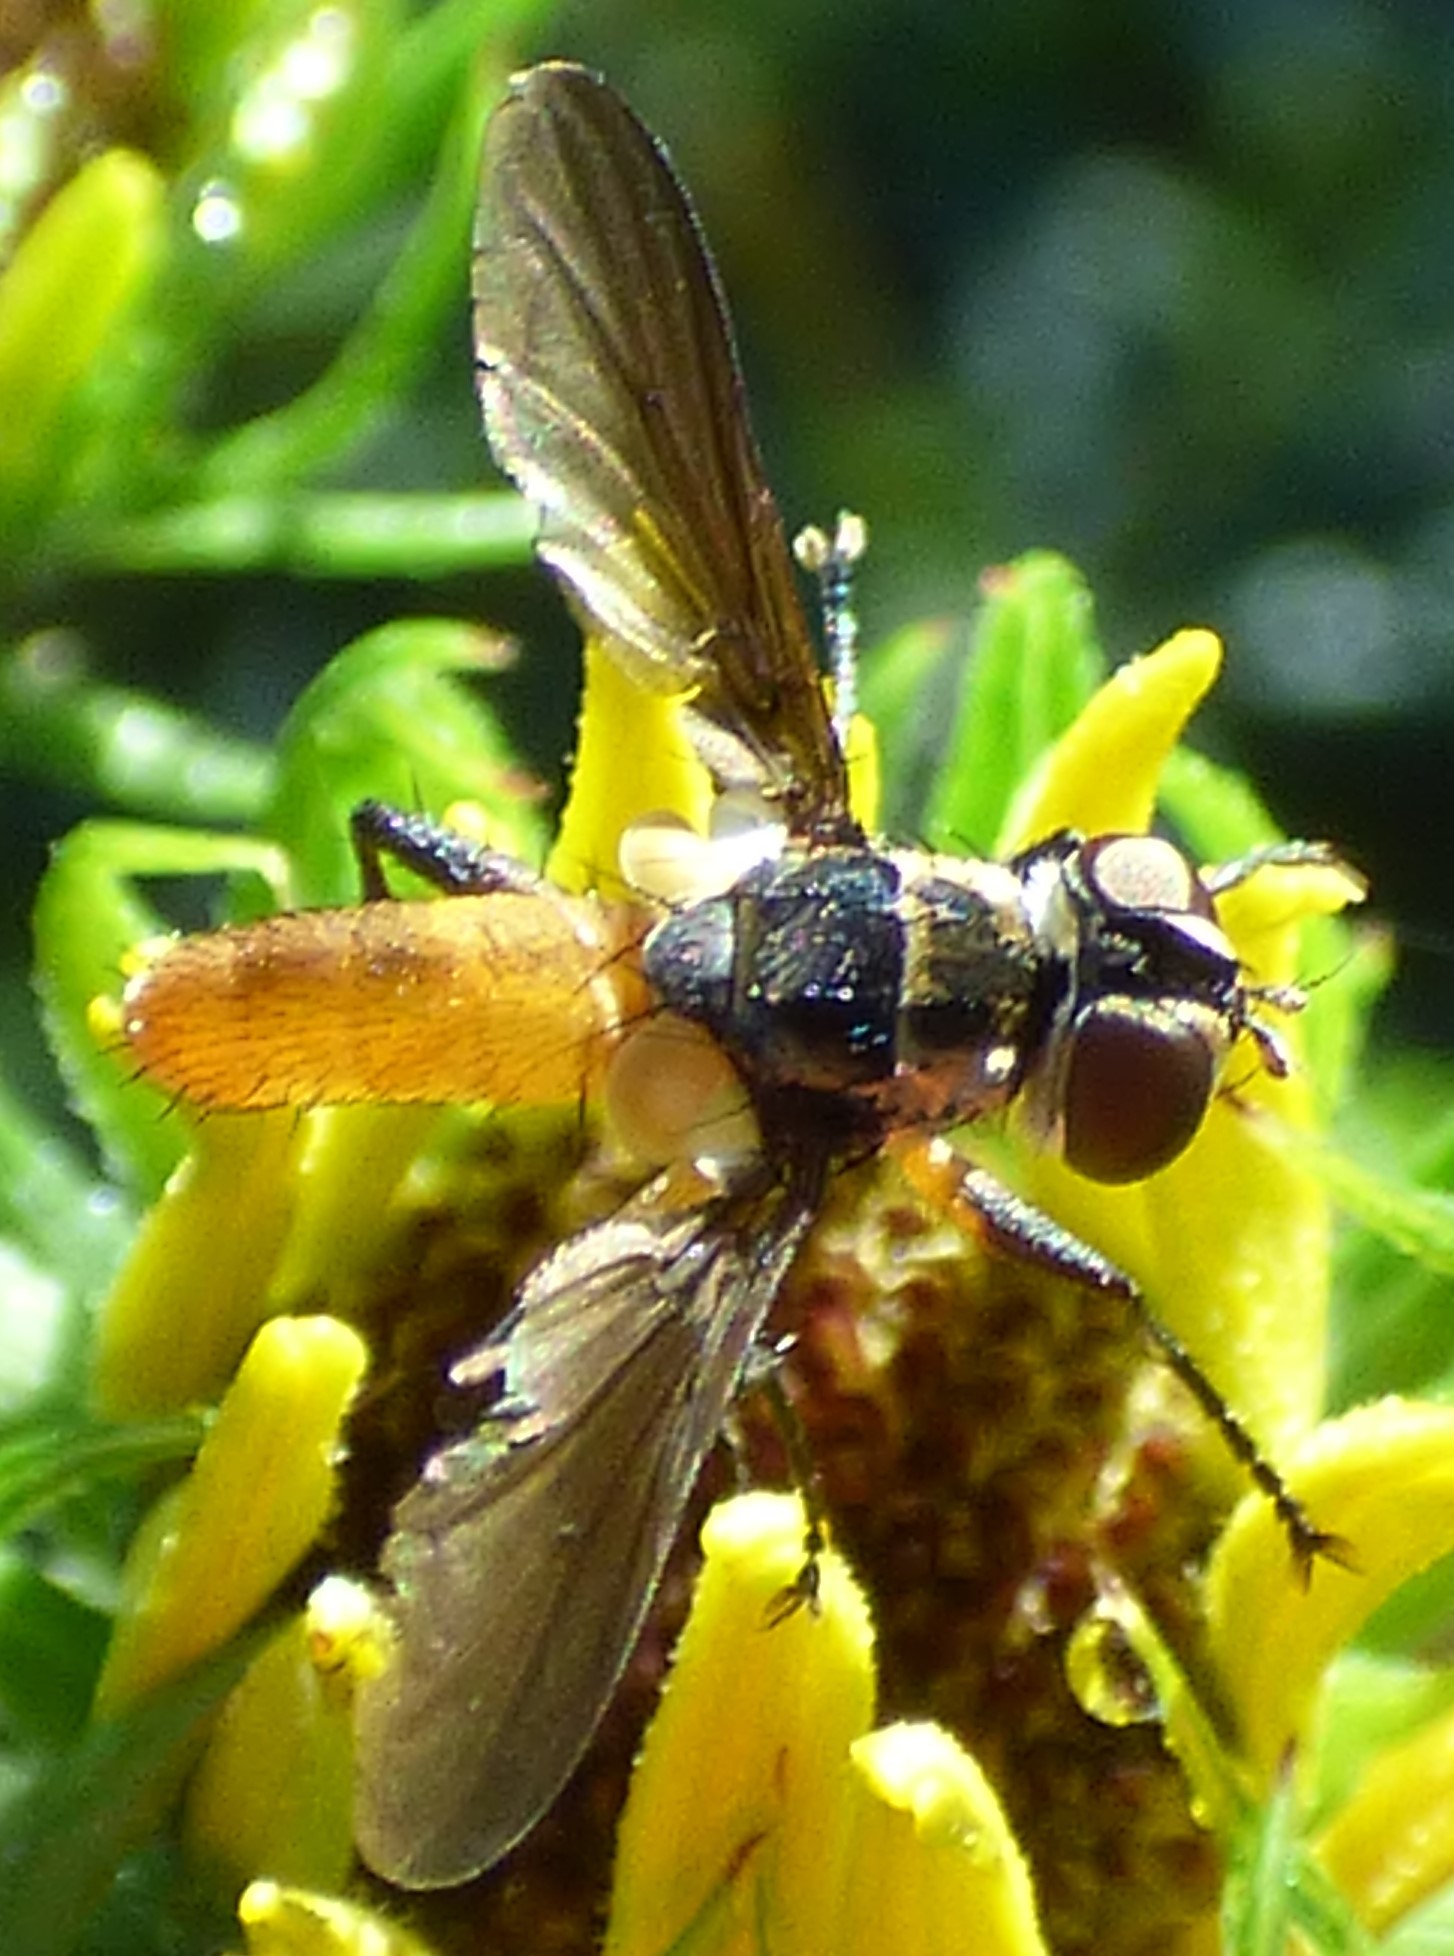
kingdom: Animalia
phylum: Arthropoda
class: Insecta
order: Diptera
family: Tachinidae
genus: Trichopoda
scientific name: Trichopoda pennipes
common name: Tachinid fly
